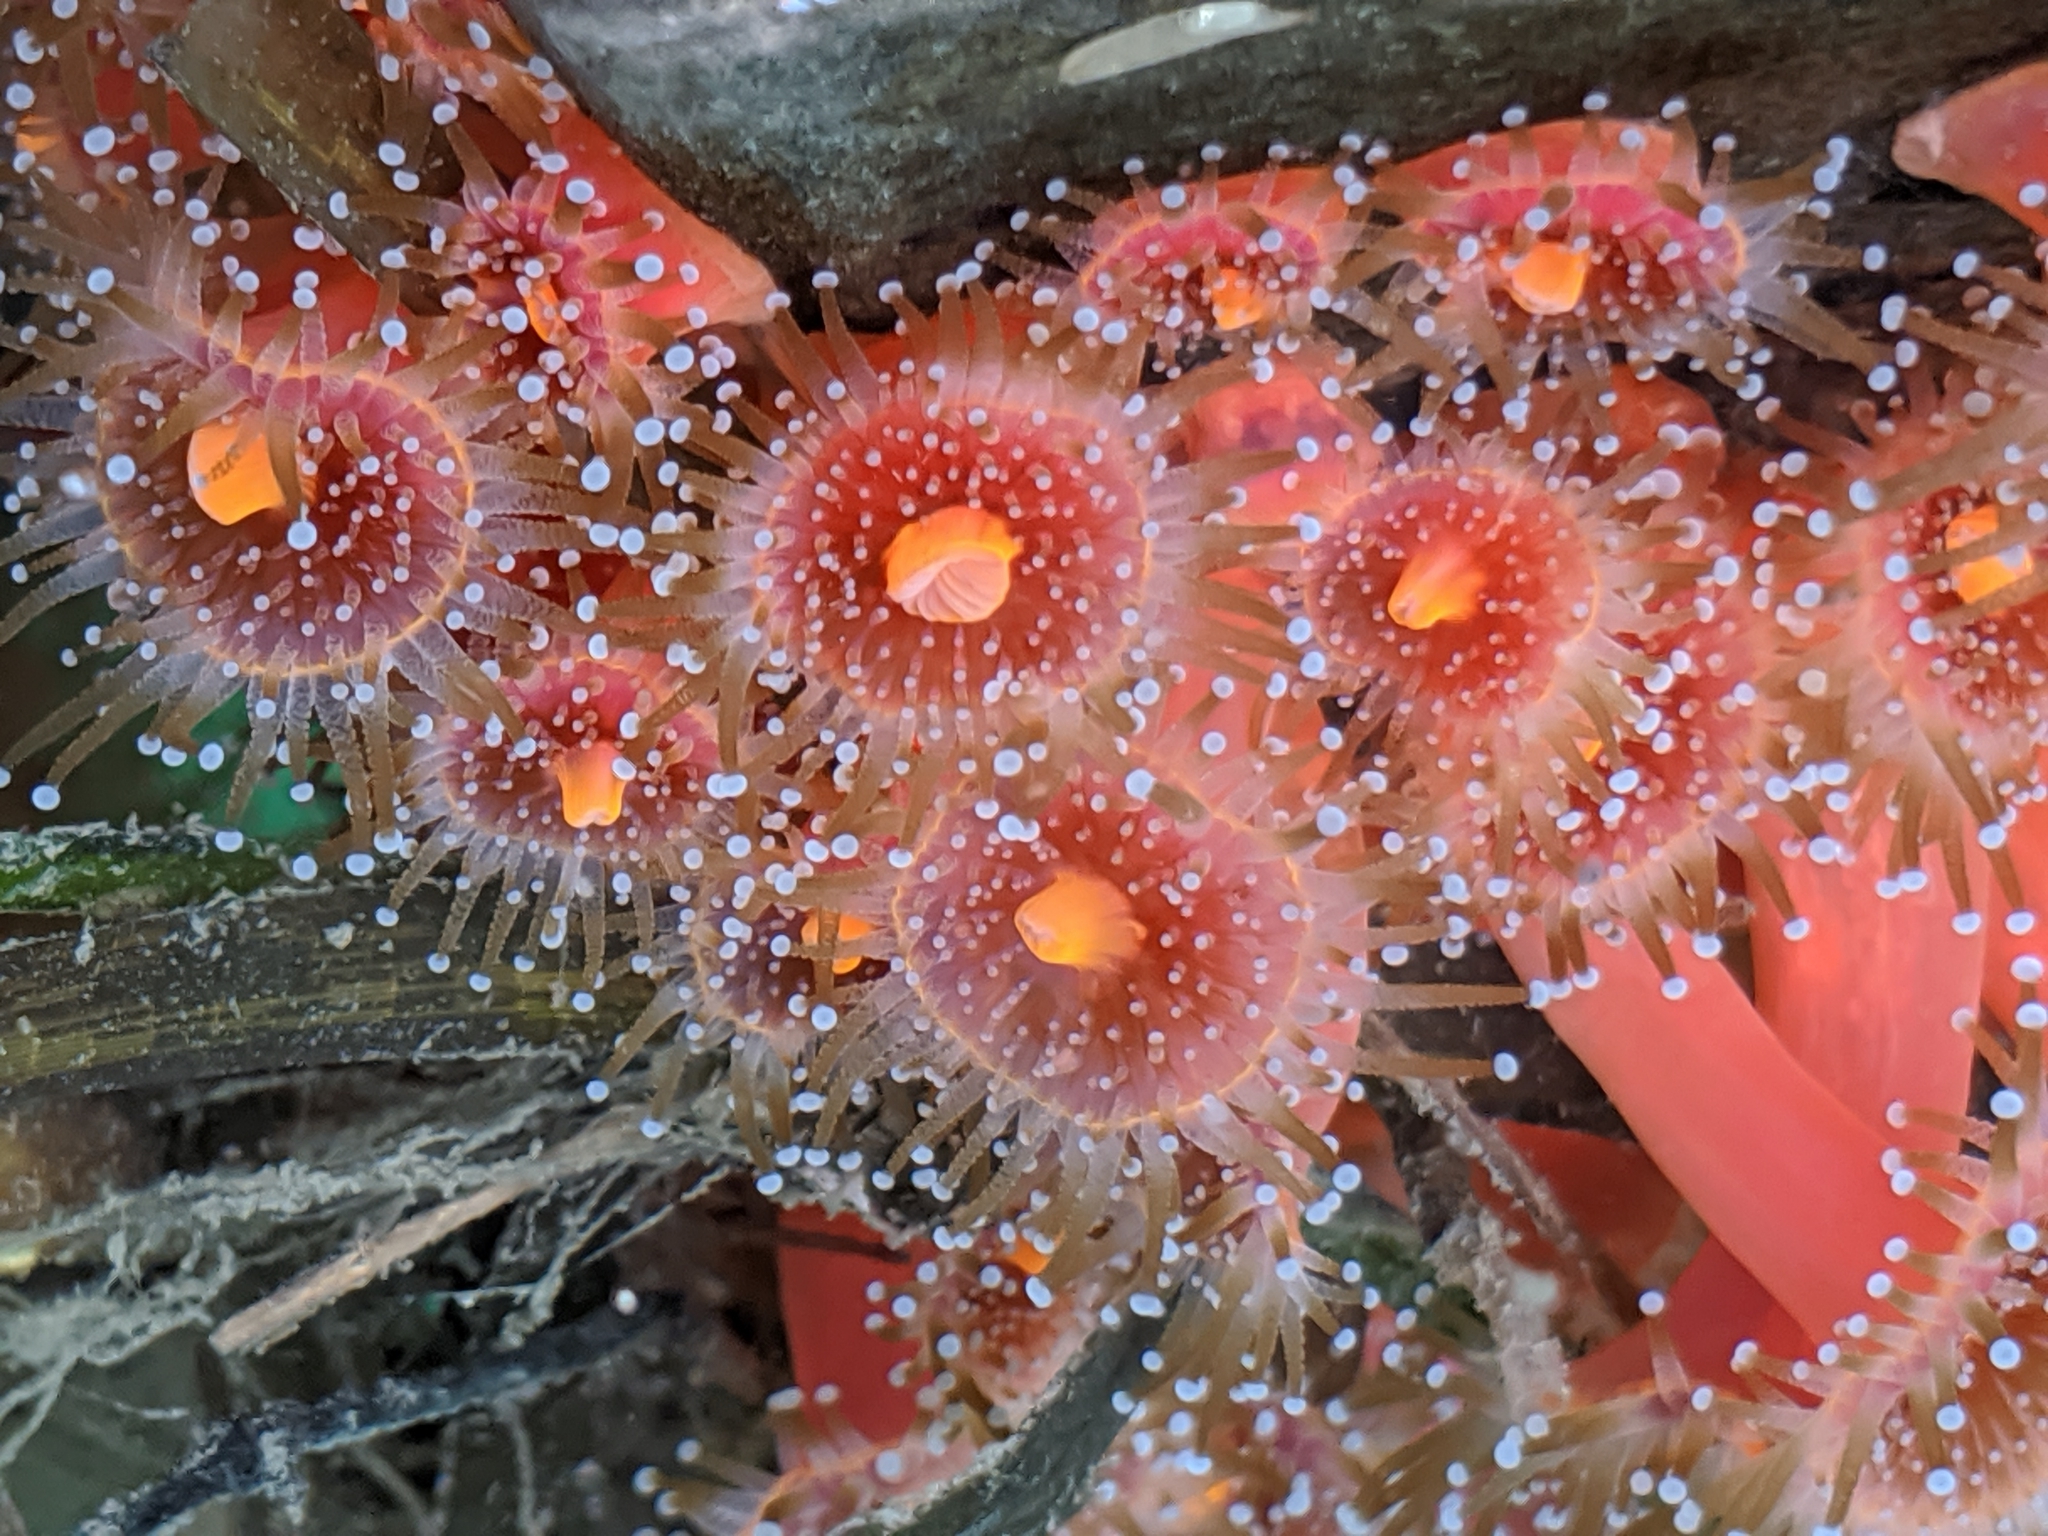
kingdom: Animalia
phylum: Cnidaria
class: Anthozoa
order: Corallimorpharia
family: Corallimorphidae
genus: Corynactis
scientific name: Corynactis californica
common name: Strawberry corallimorpharian
